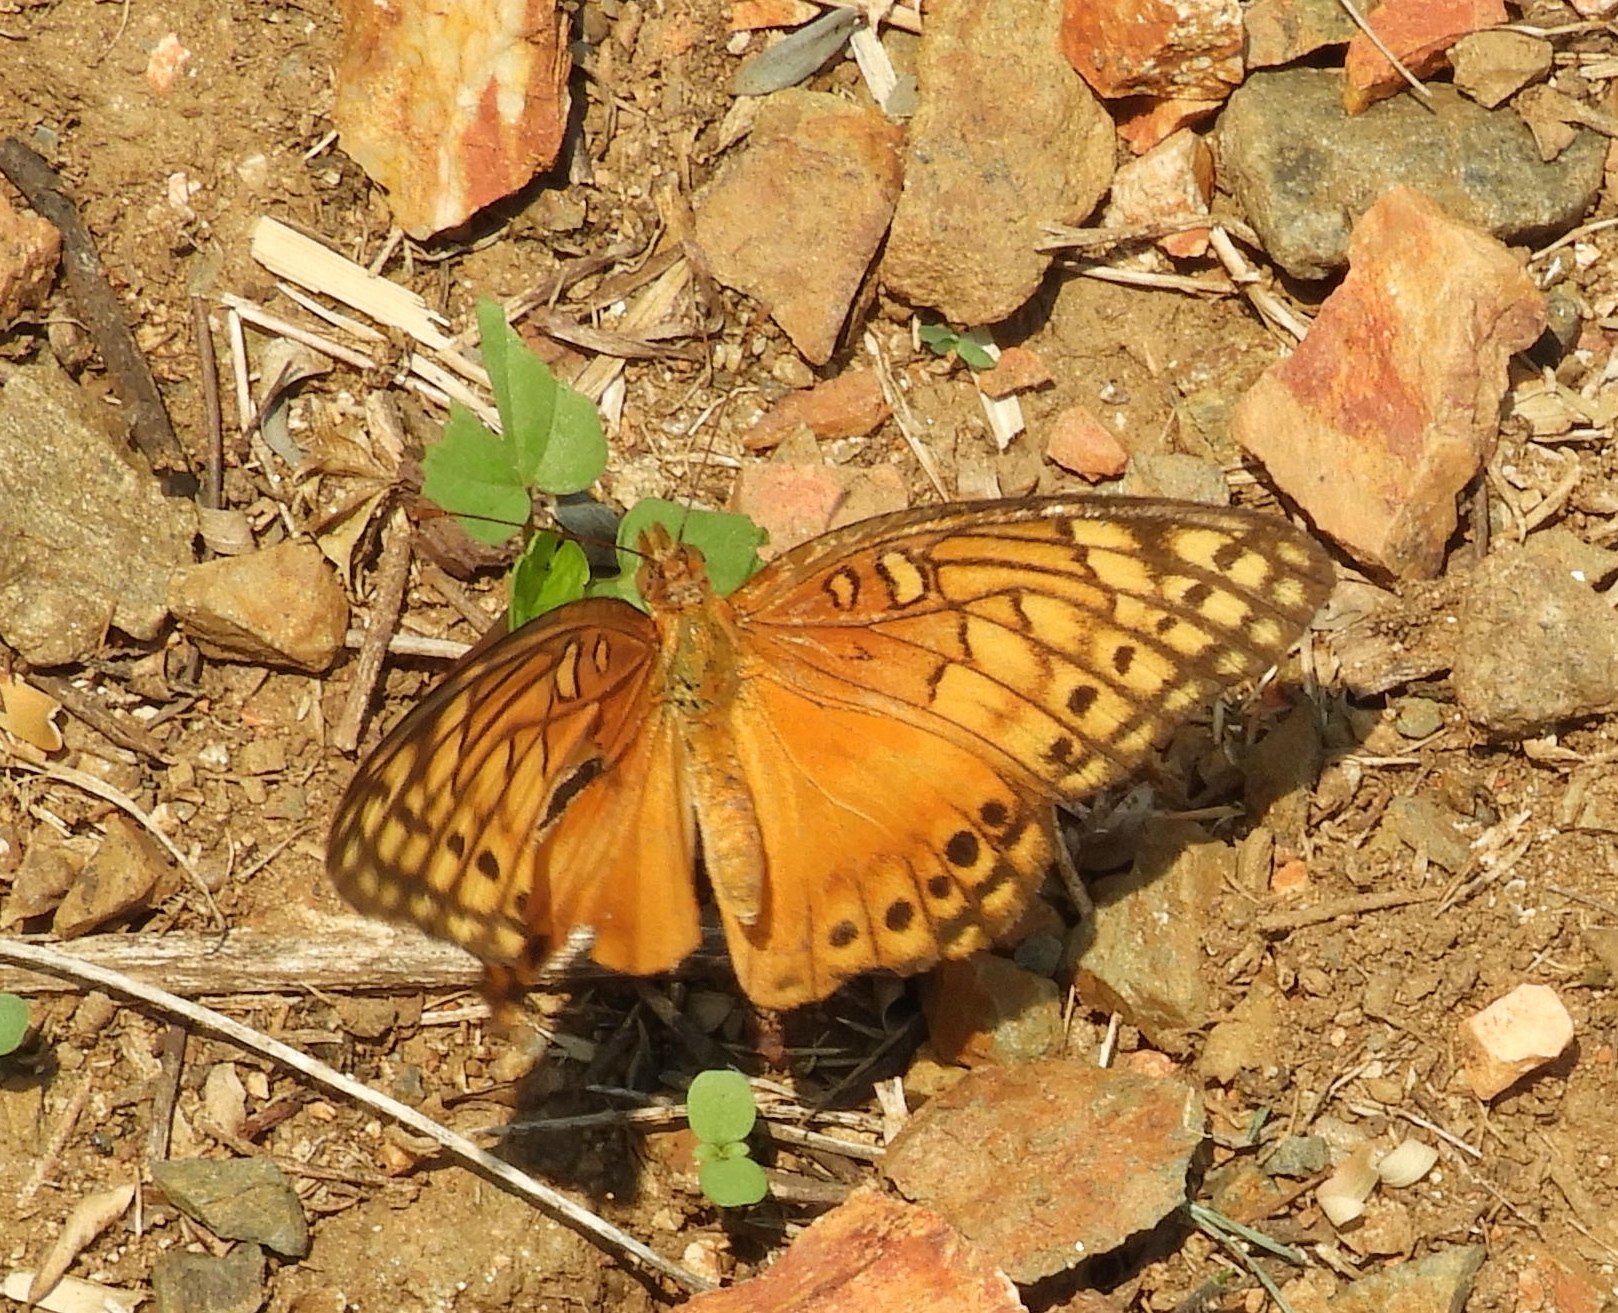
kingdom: Animalia
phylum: Arthropoda
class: Insecta
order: Lepidoptera
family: Nymphalidae
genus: Euptoieta
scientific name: Euptoieta hegesia
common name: Mexican fritillary
